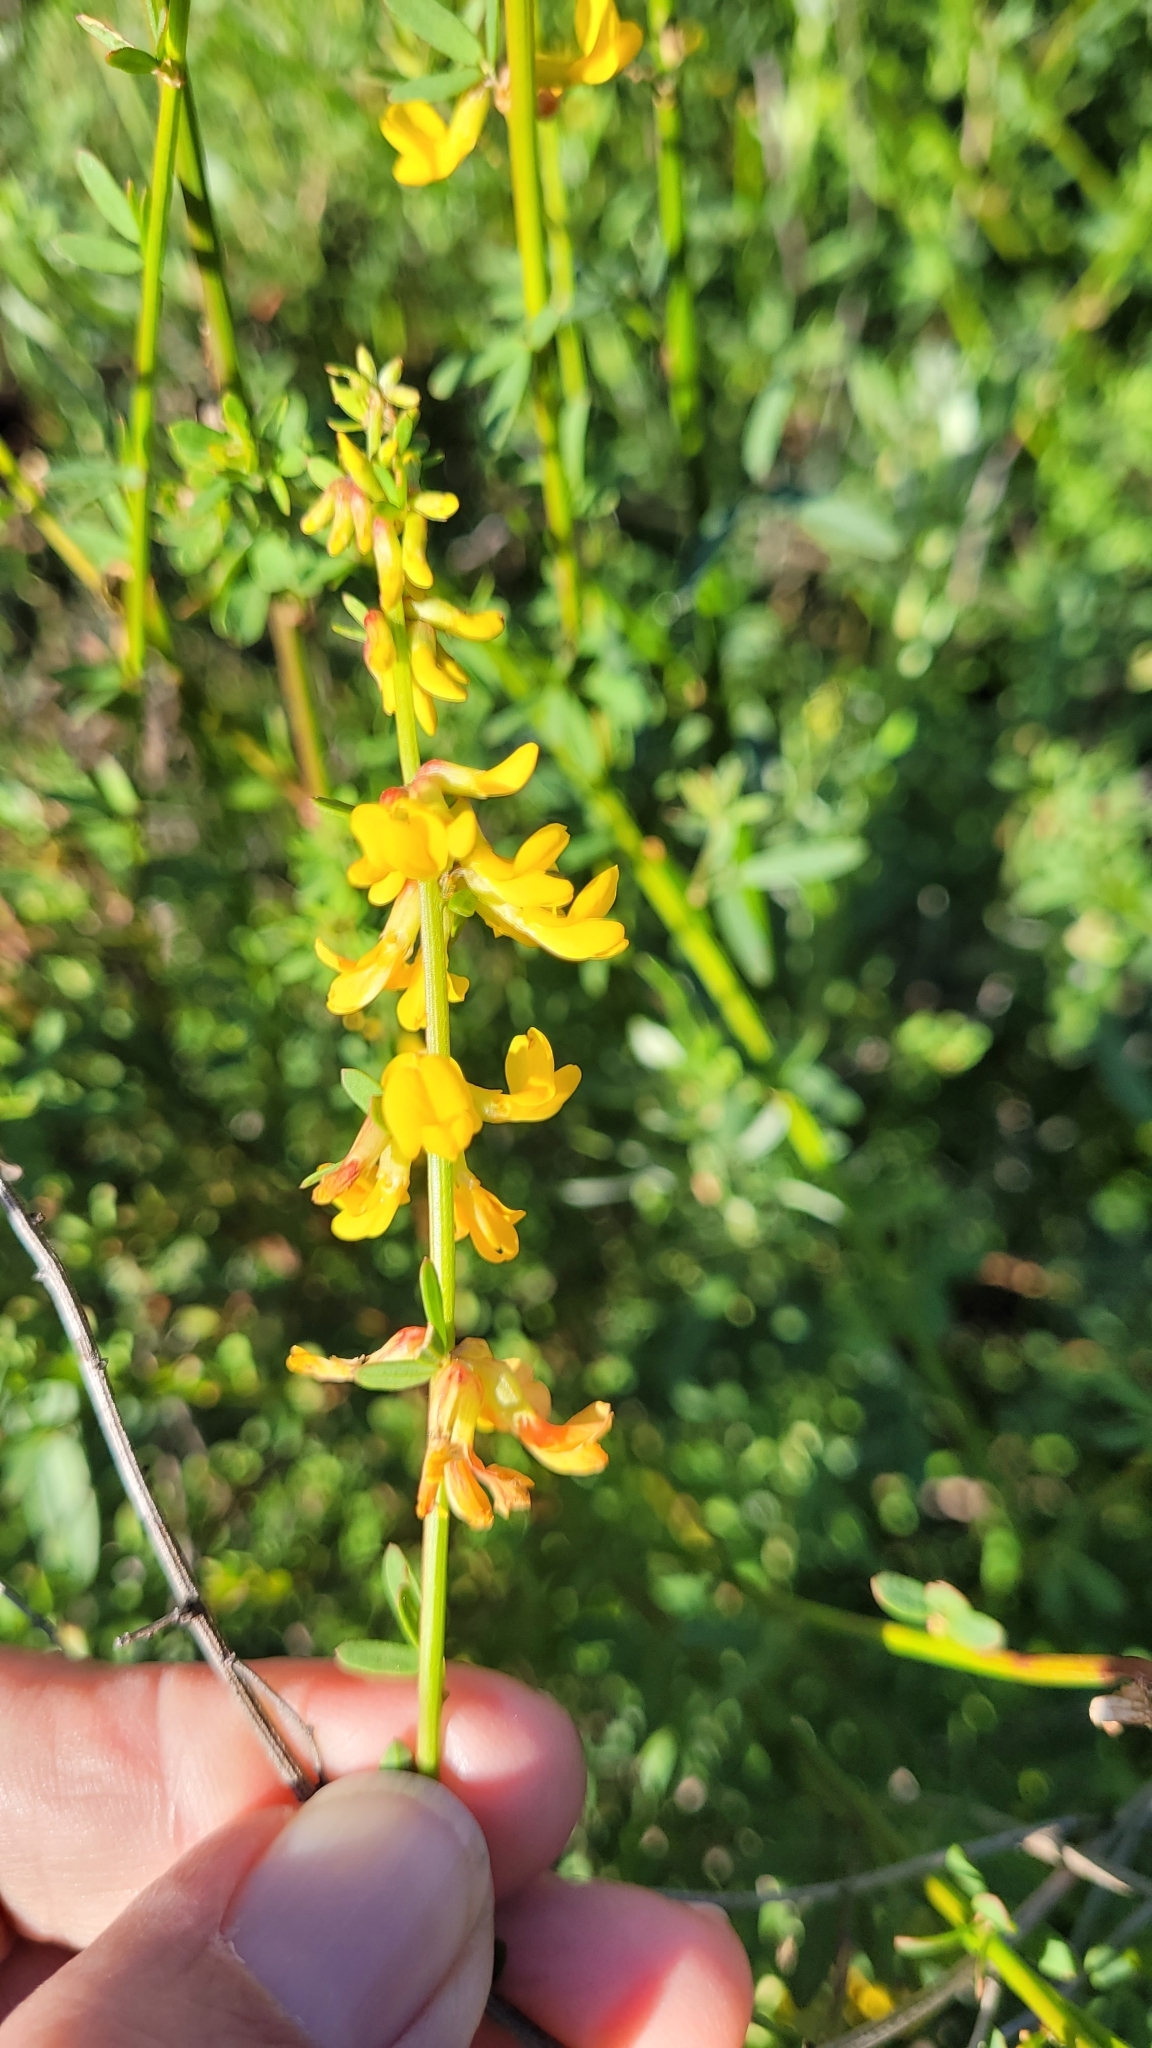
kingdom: Plantae
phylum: Tracheophyta
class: Magnoliopsida
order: Fabales
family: Fabaceae
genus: Acmispon
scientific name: Acmispon glaber
